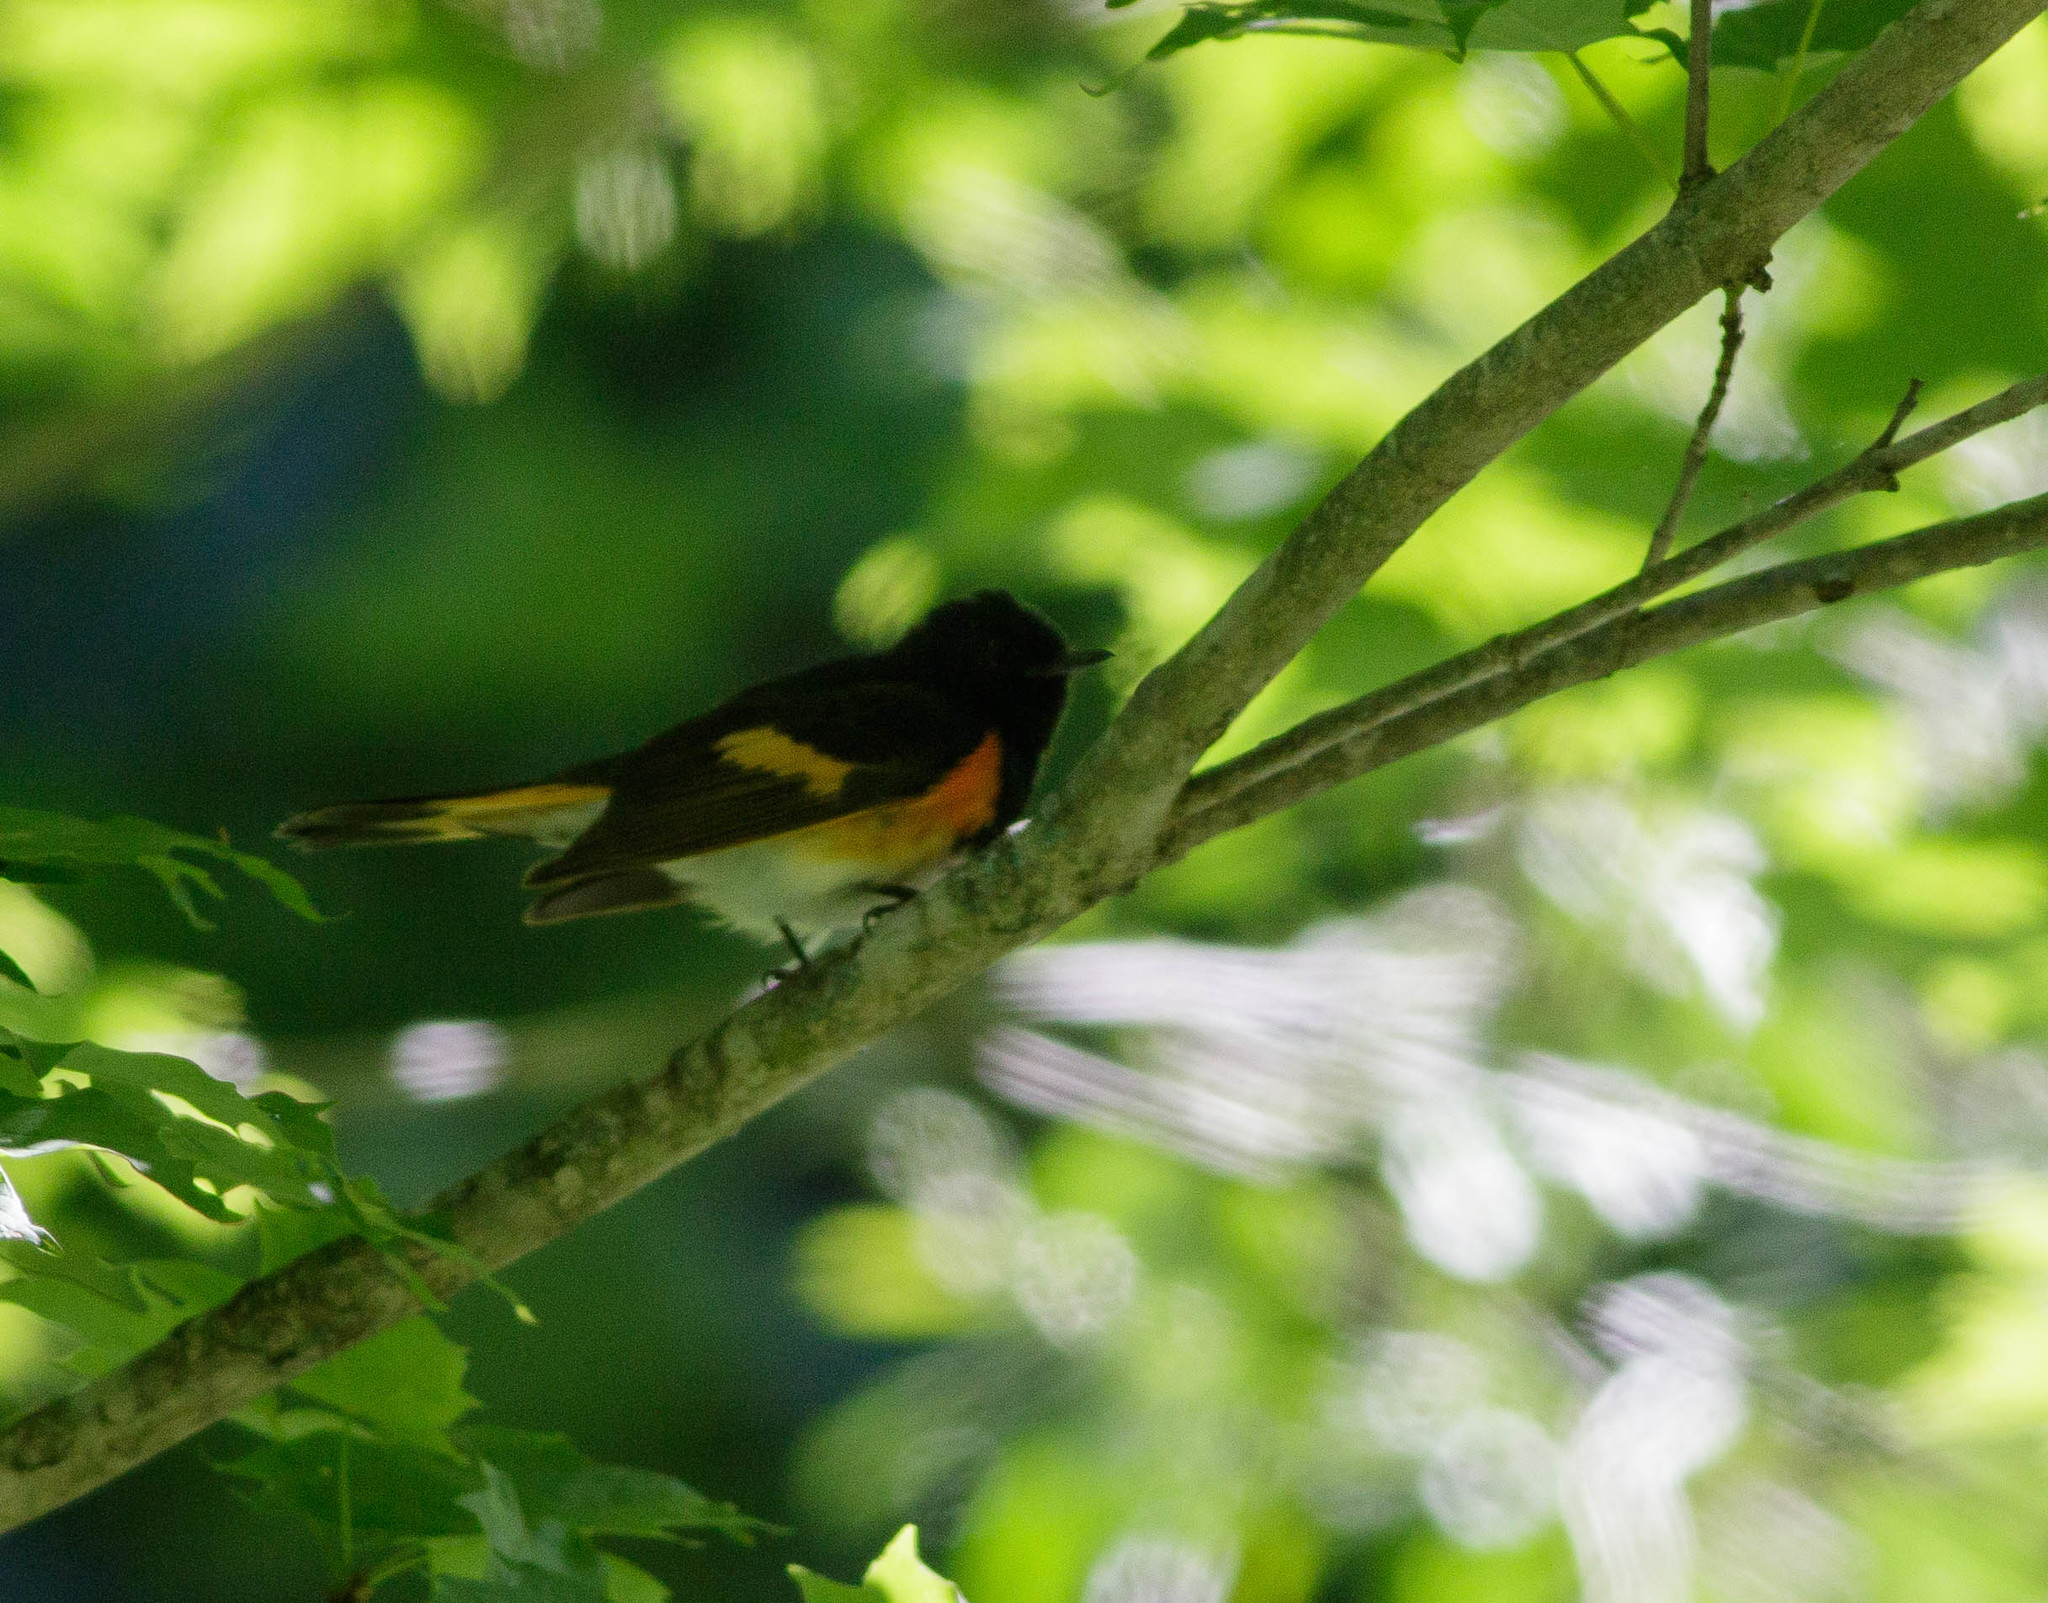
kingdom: Animalia
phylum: Chordata
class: Aves
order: Passeriformes
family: Parulidae
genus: Setophaga
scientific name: Setophaga ruticilla
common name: American redstart
